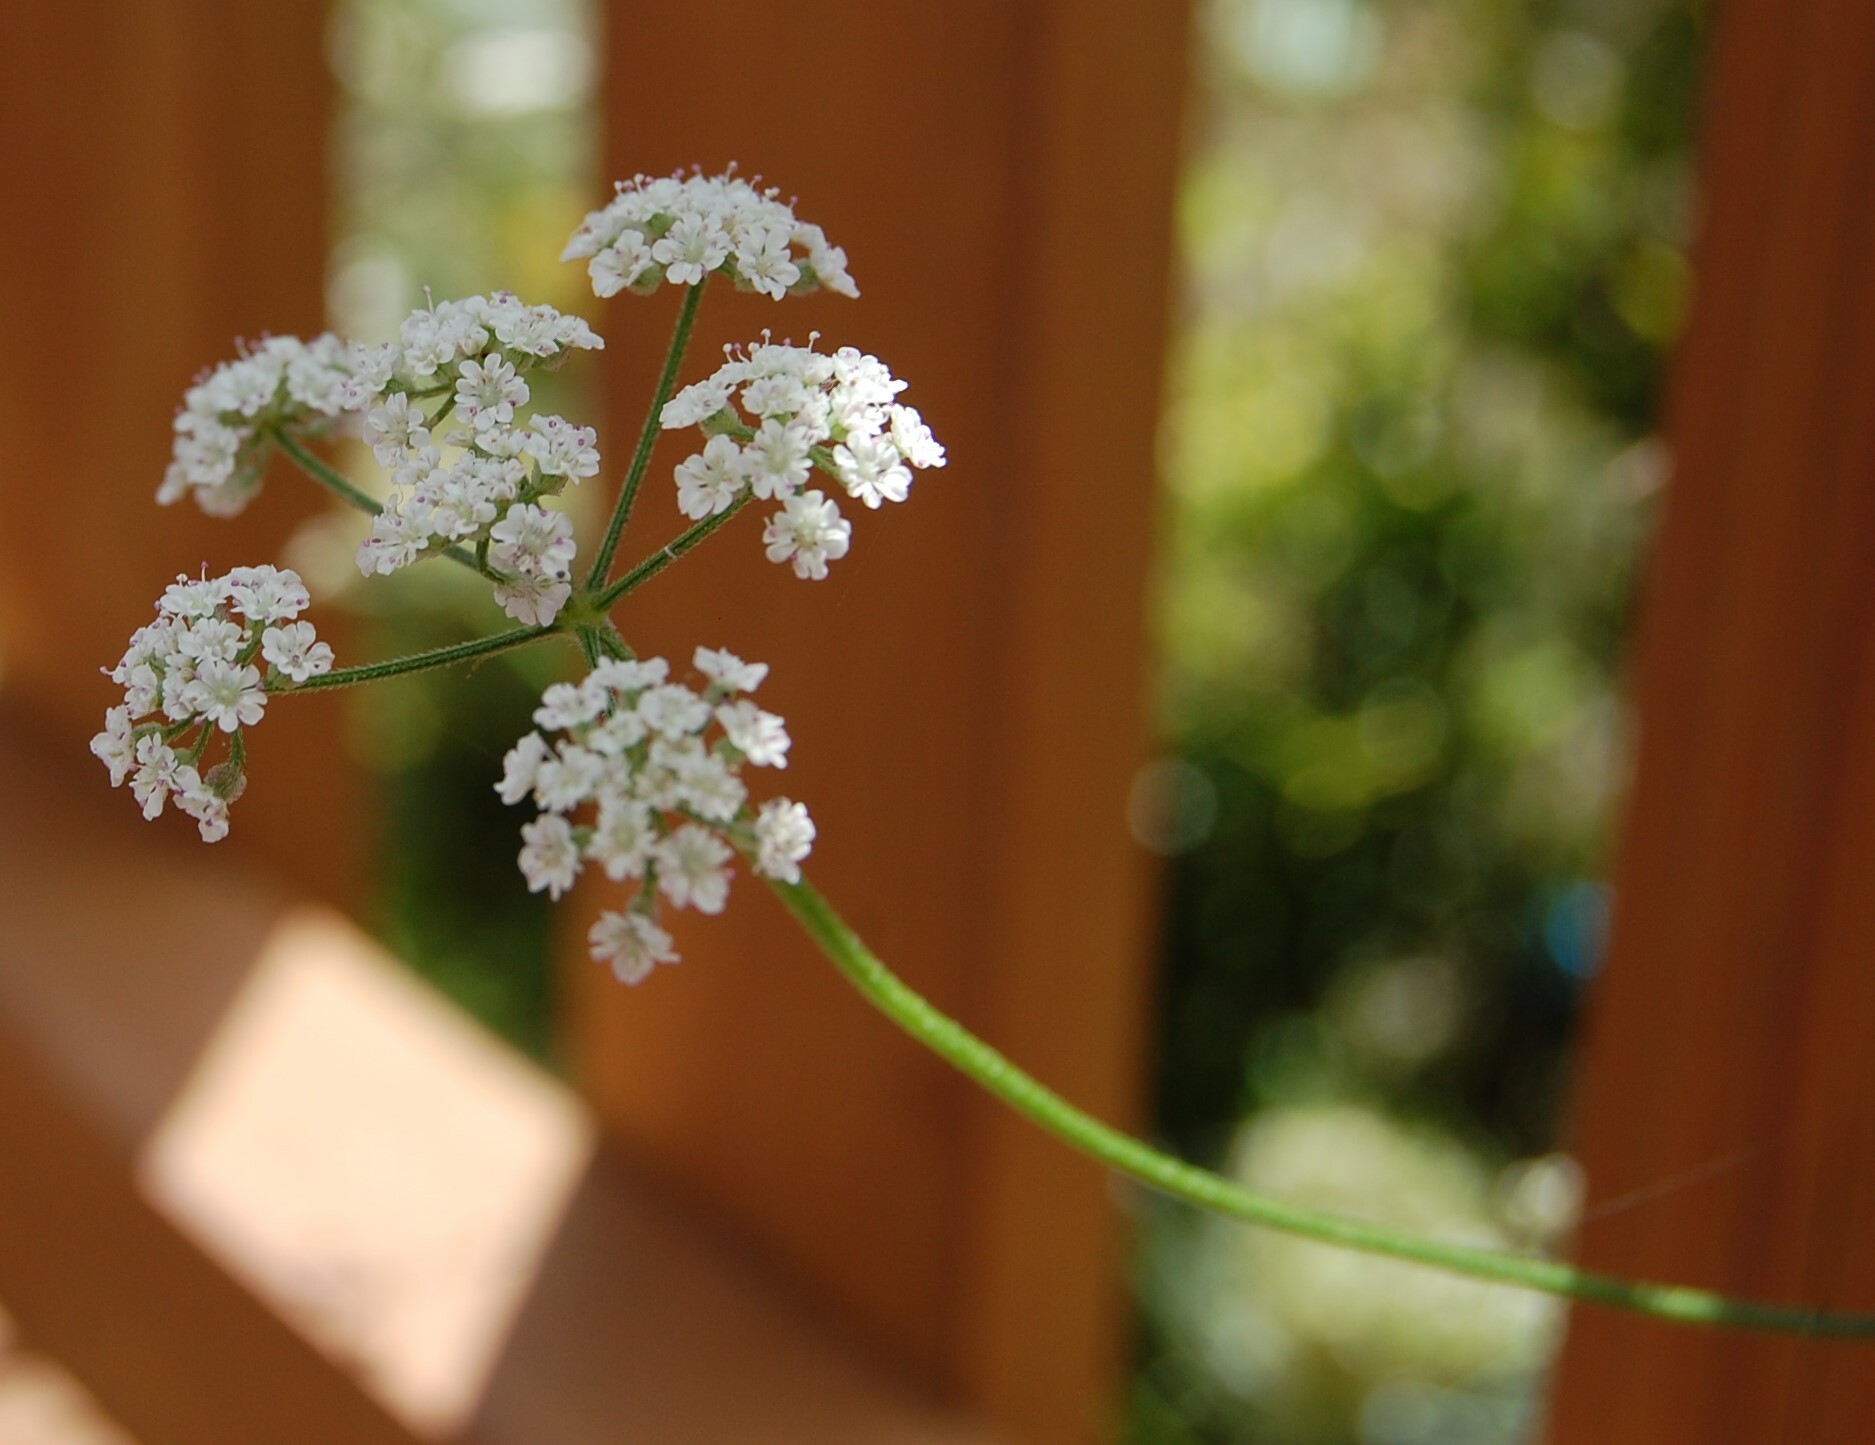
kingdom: Plantae
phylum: Tracheophyta
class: Magnoliopsida
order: Apiales
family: Apiaceae
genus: Torilis
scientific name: Torilis japonica
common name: Upright hedge-parsley
